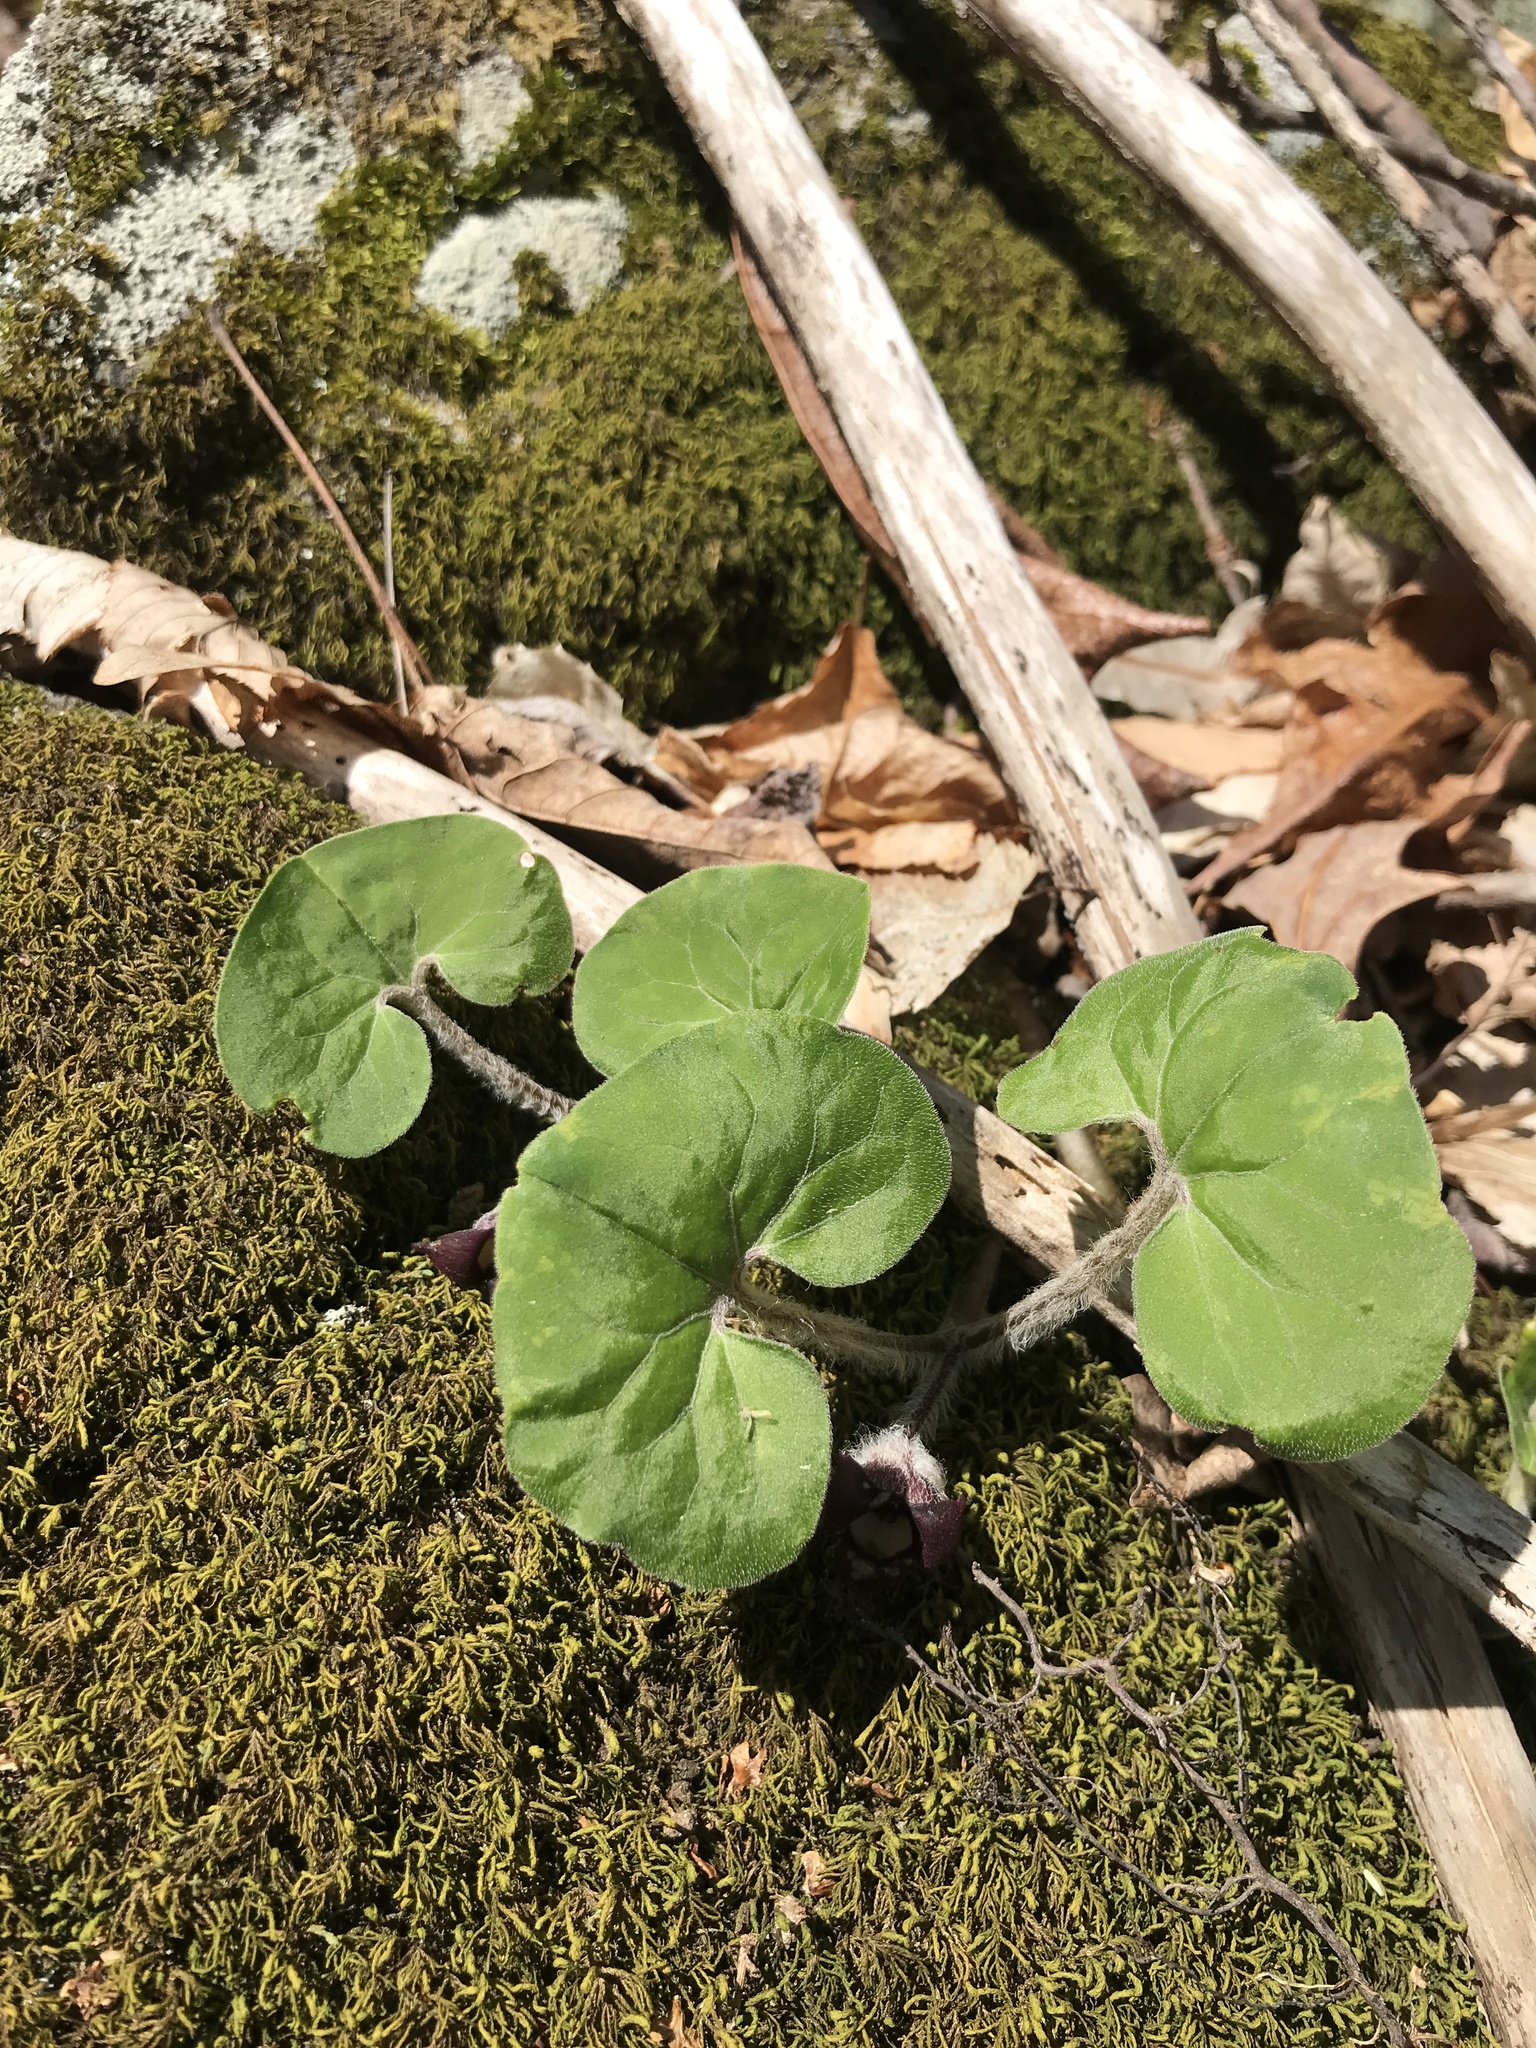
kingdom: Plantae
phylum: Tracheophyta
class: Magnoliopsida
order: Piperales
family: Aristolochiaceae
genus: Asarum
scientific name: Asarum canadense
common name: Wild ginger
